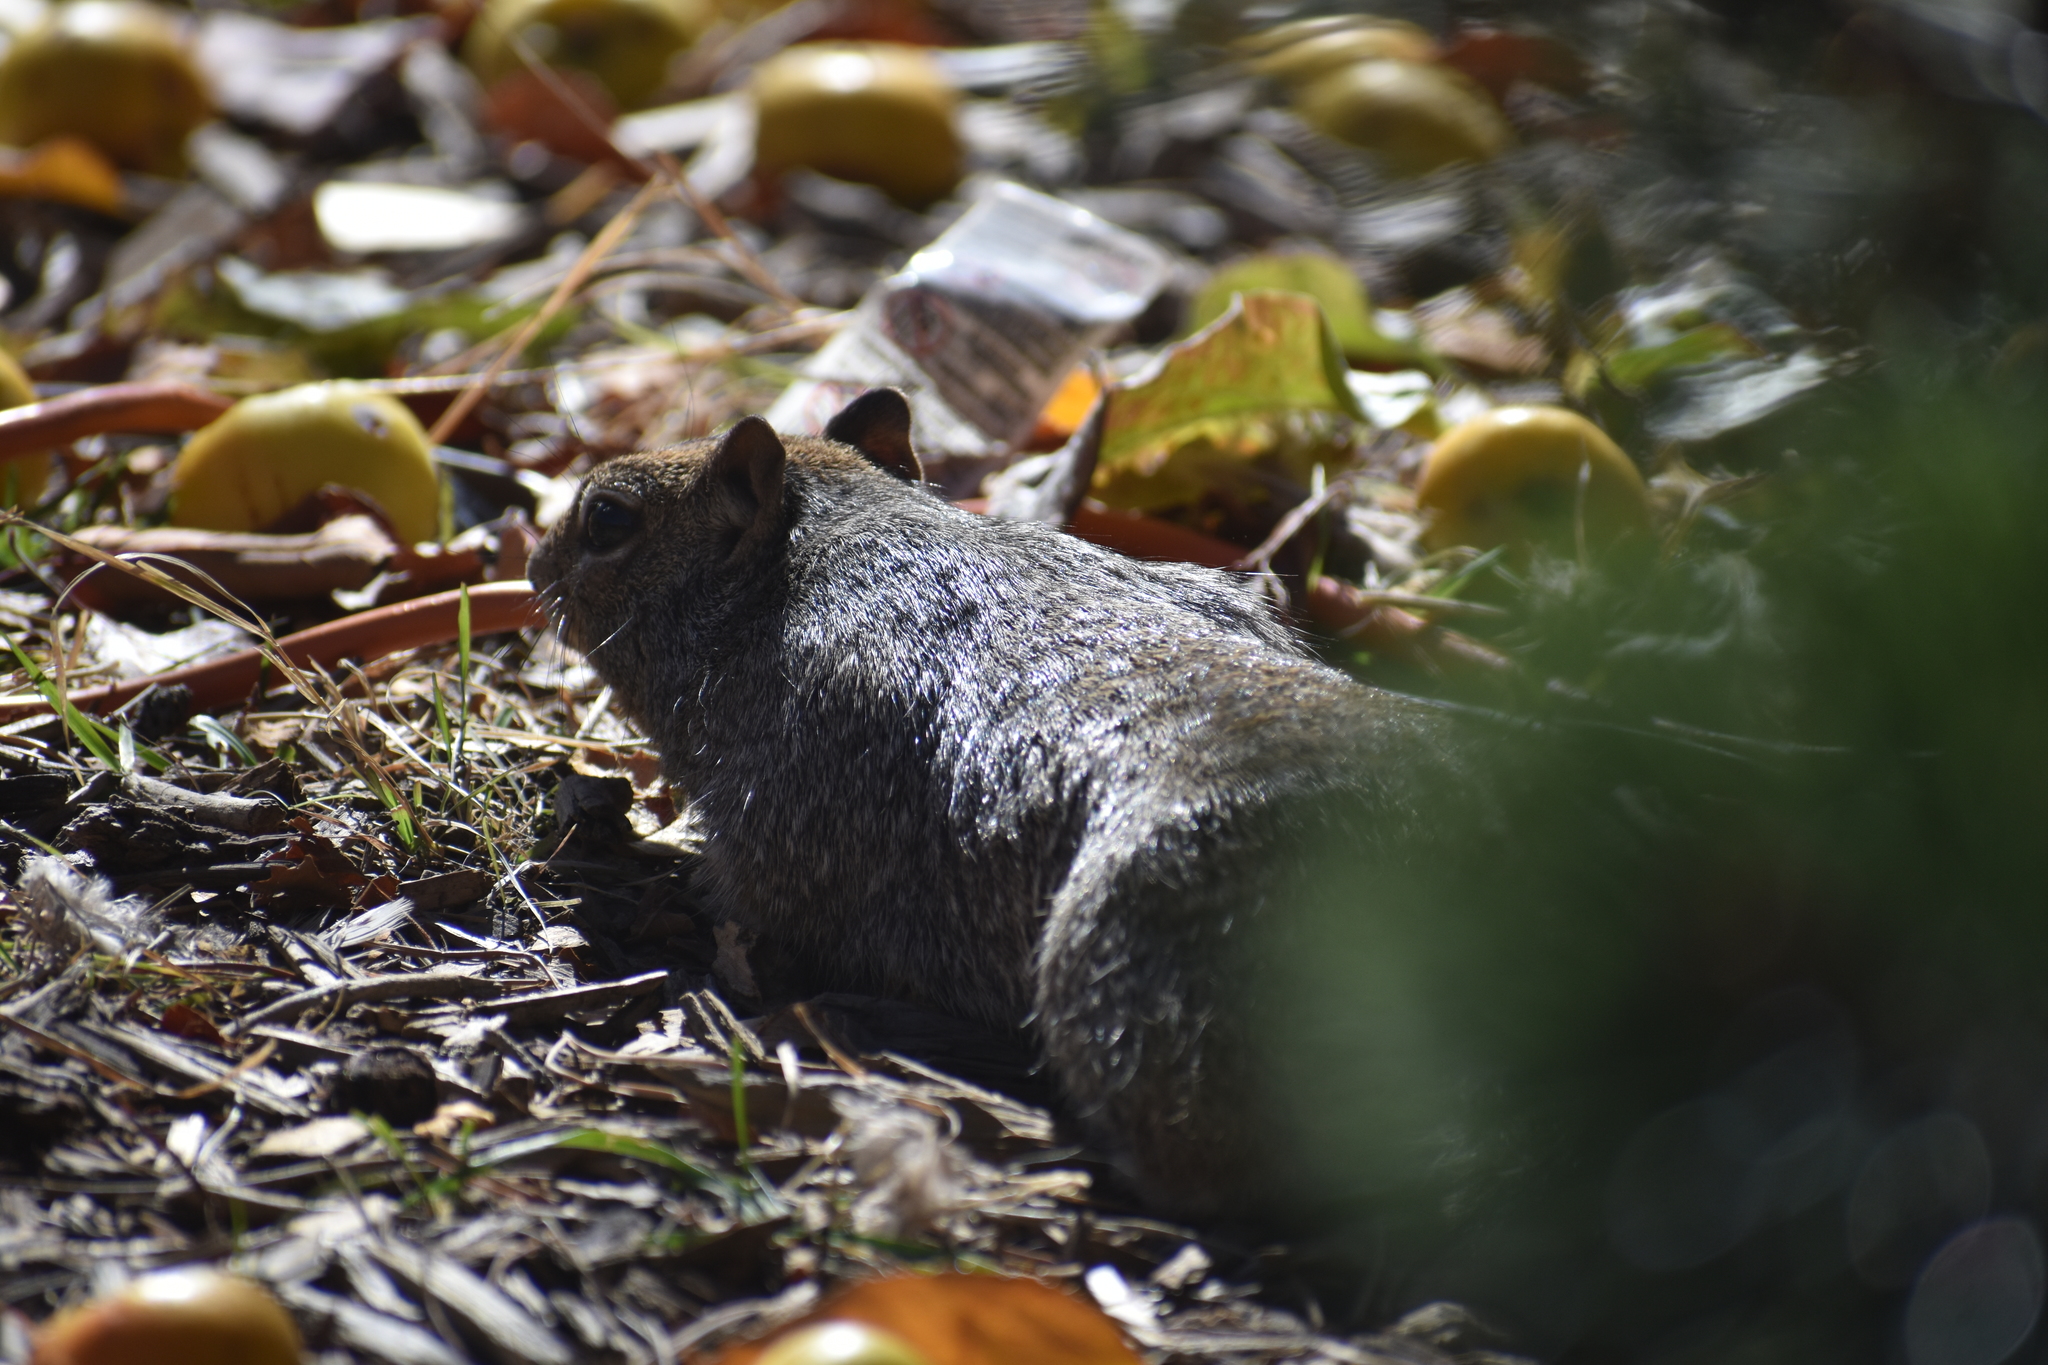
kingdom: Animalia
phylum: Chordata
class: Mammalia
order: Rodentia
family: Sciuridae
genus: Otospermophilus
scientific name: Otospermophilus variegatus
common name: Rock squirrel
